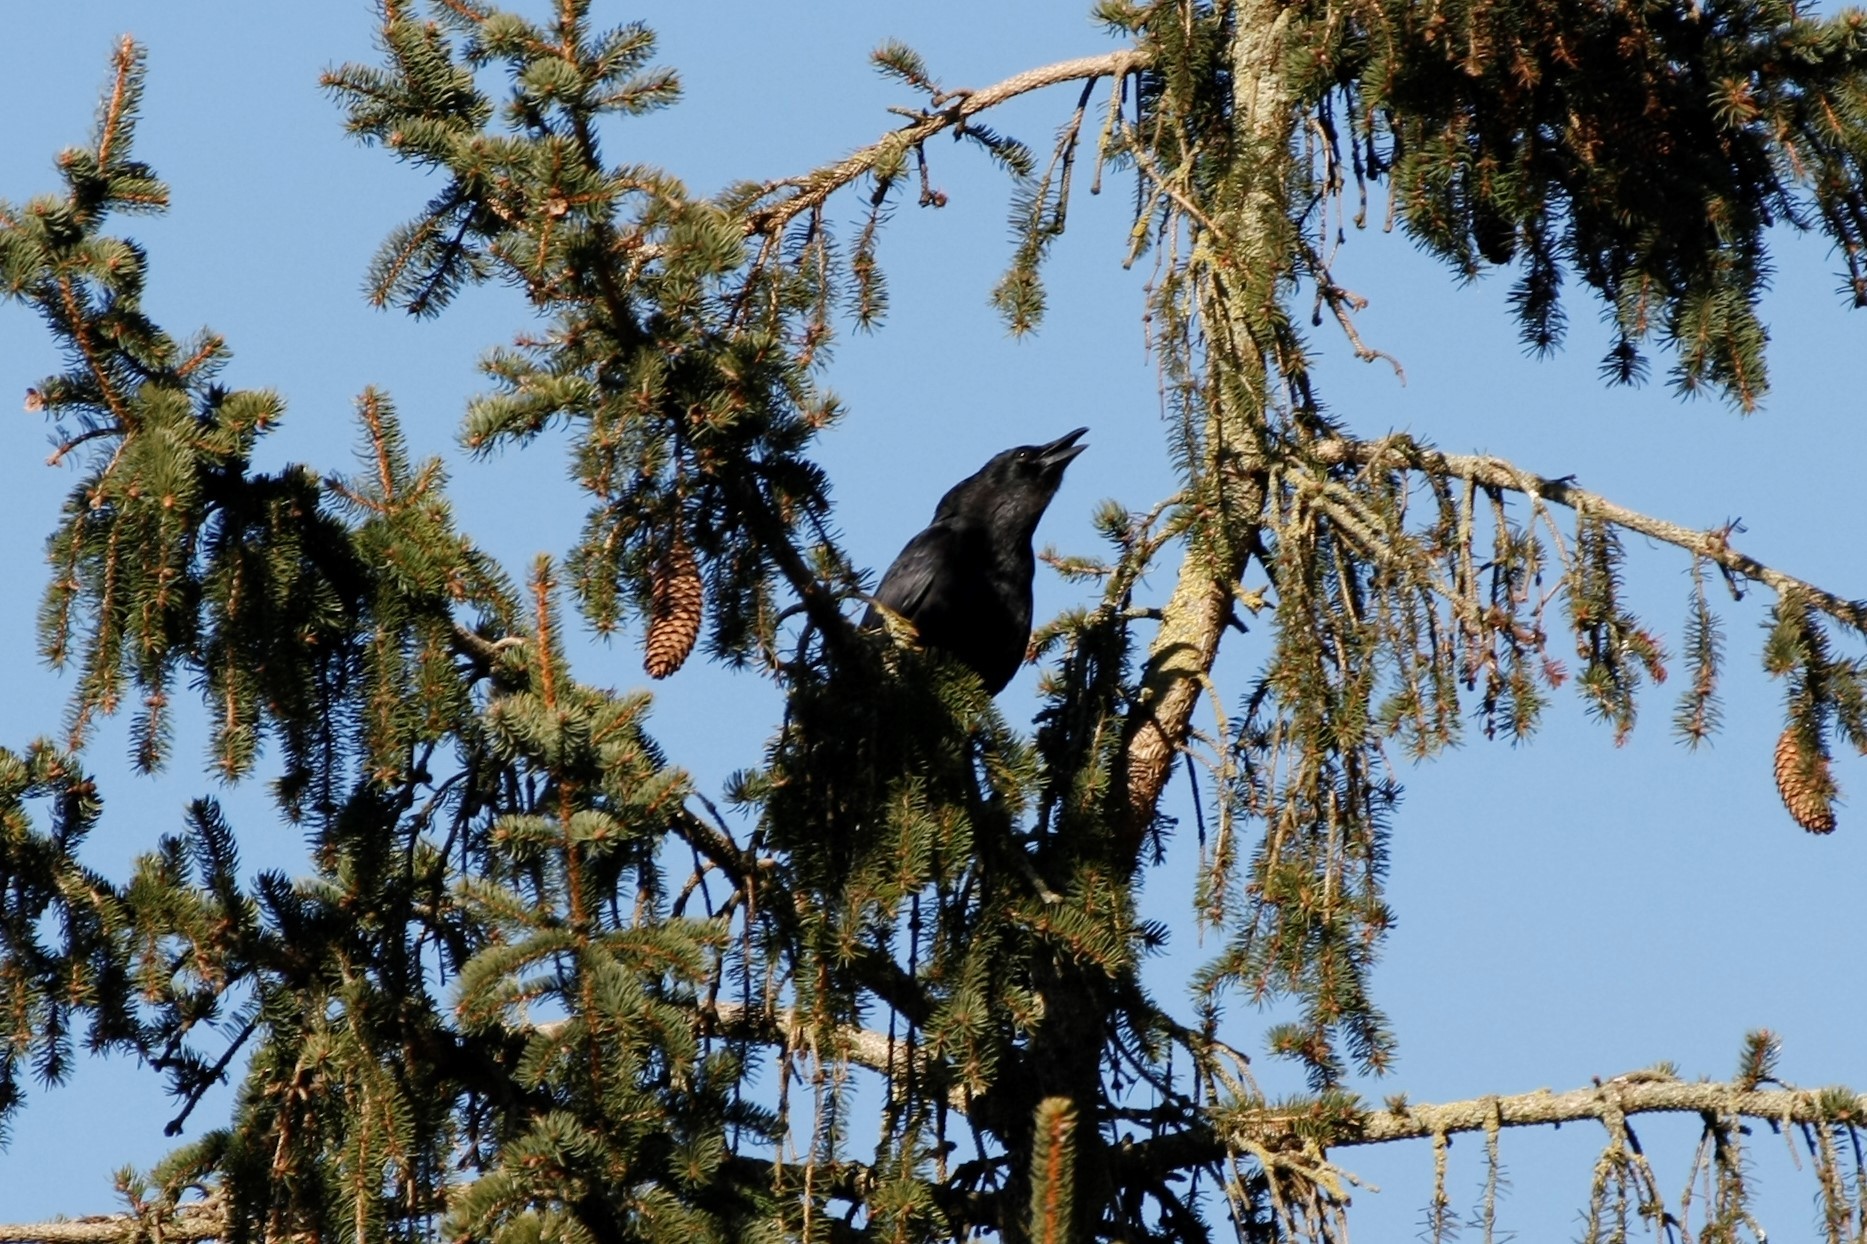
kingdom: Animalia
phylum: Chordata
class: Aves
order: Passeriformes
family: Corvidae
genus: Corvus
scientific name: Corvus corone
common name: Carrion crow
